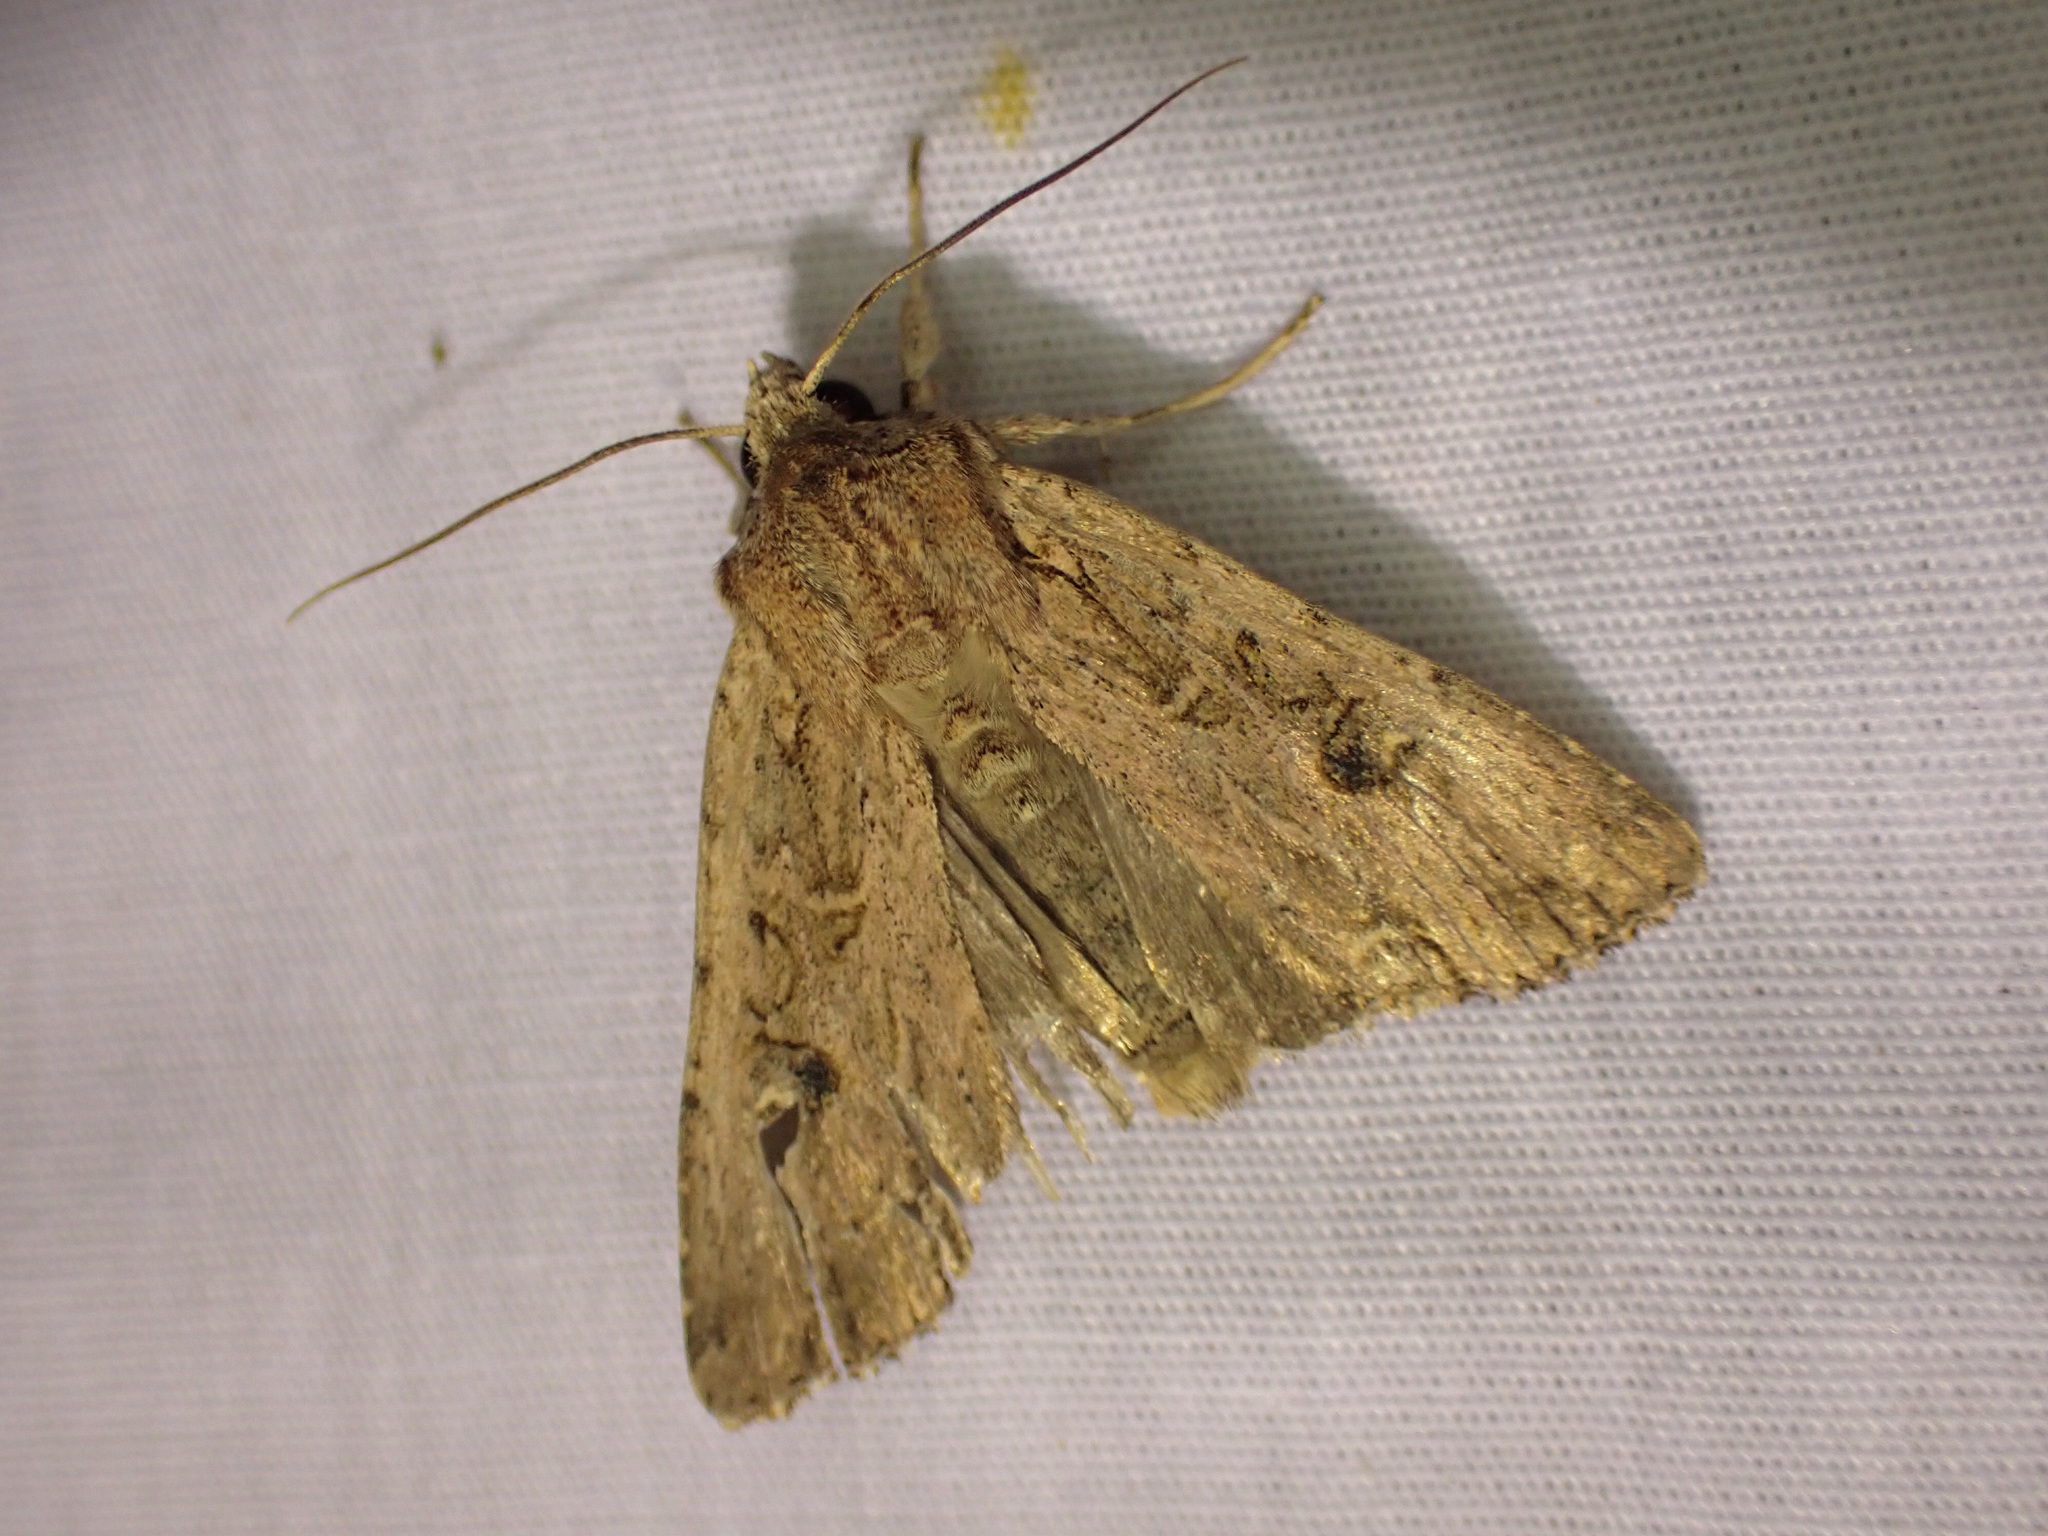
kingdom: Animalia
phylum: Arthropoda
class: Insecta
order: Lepidoptera
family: Noctuidae
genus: Ichneutica
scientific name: Ichneutica lignana
